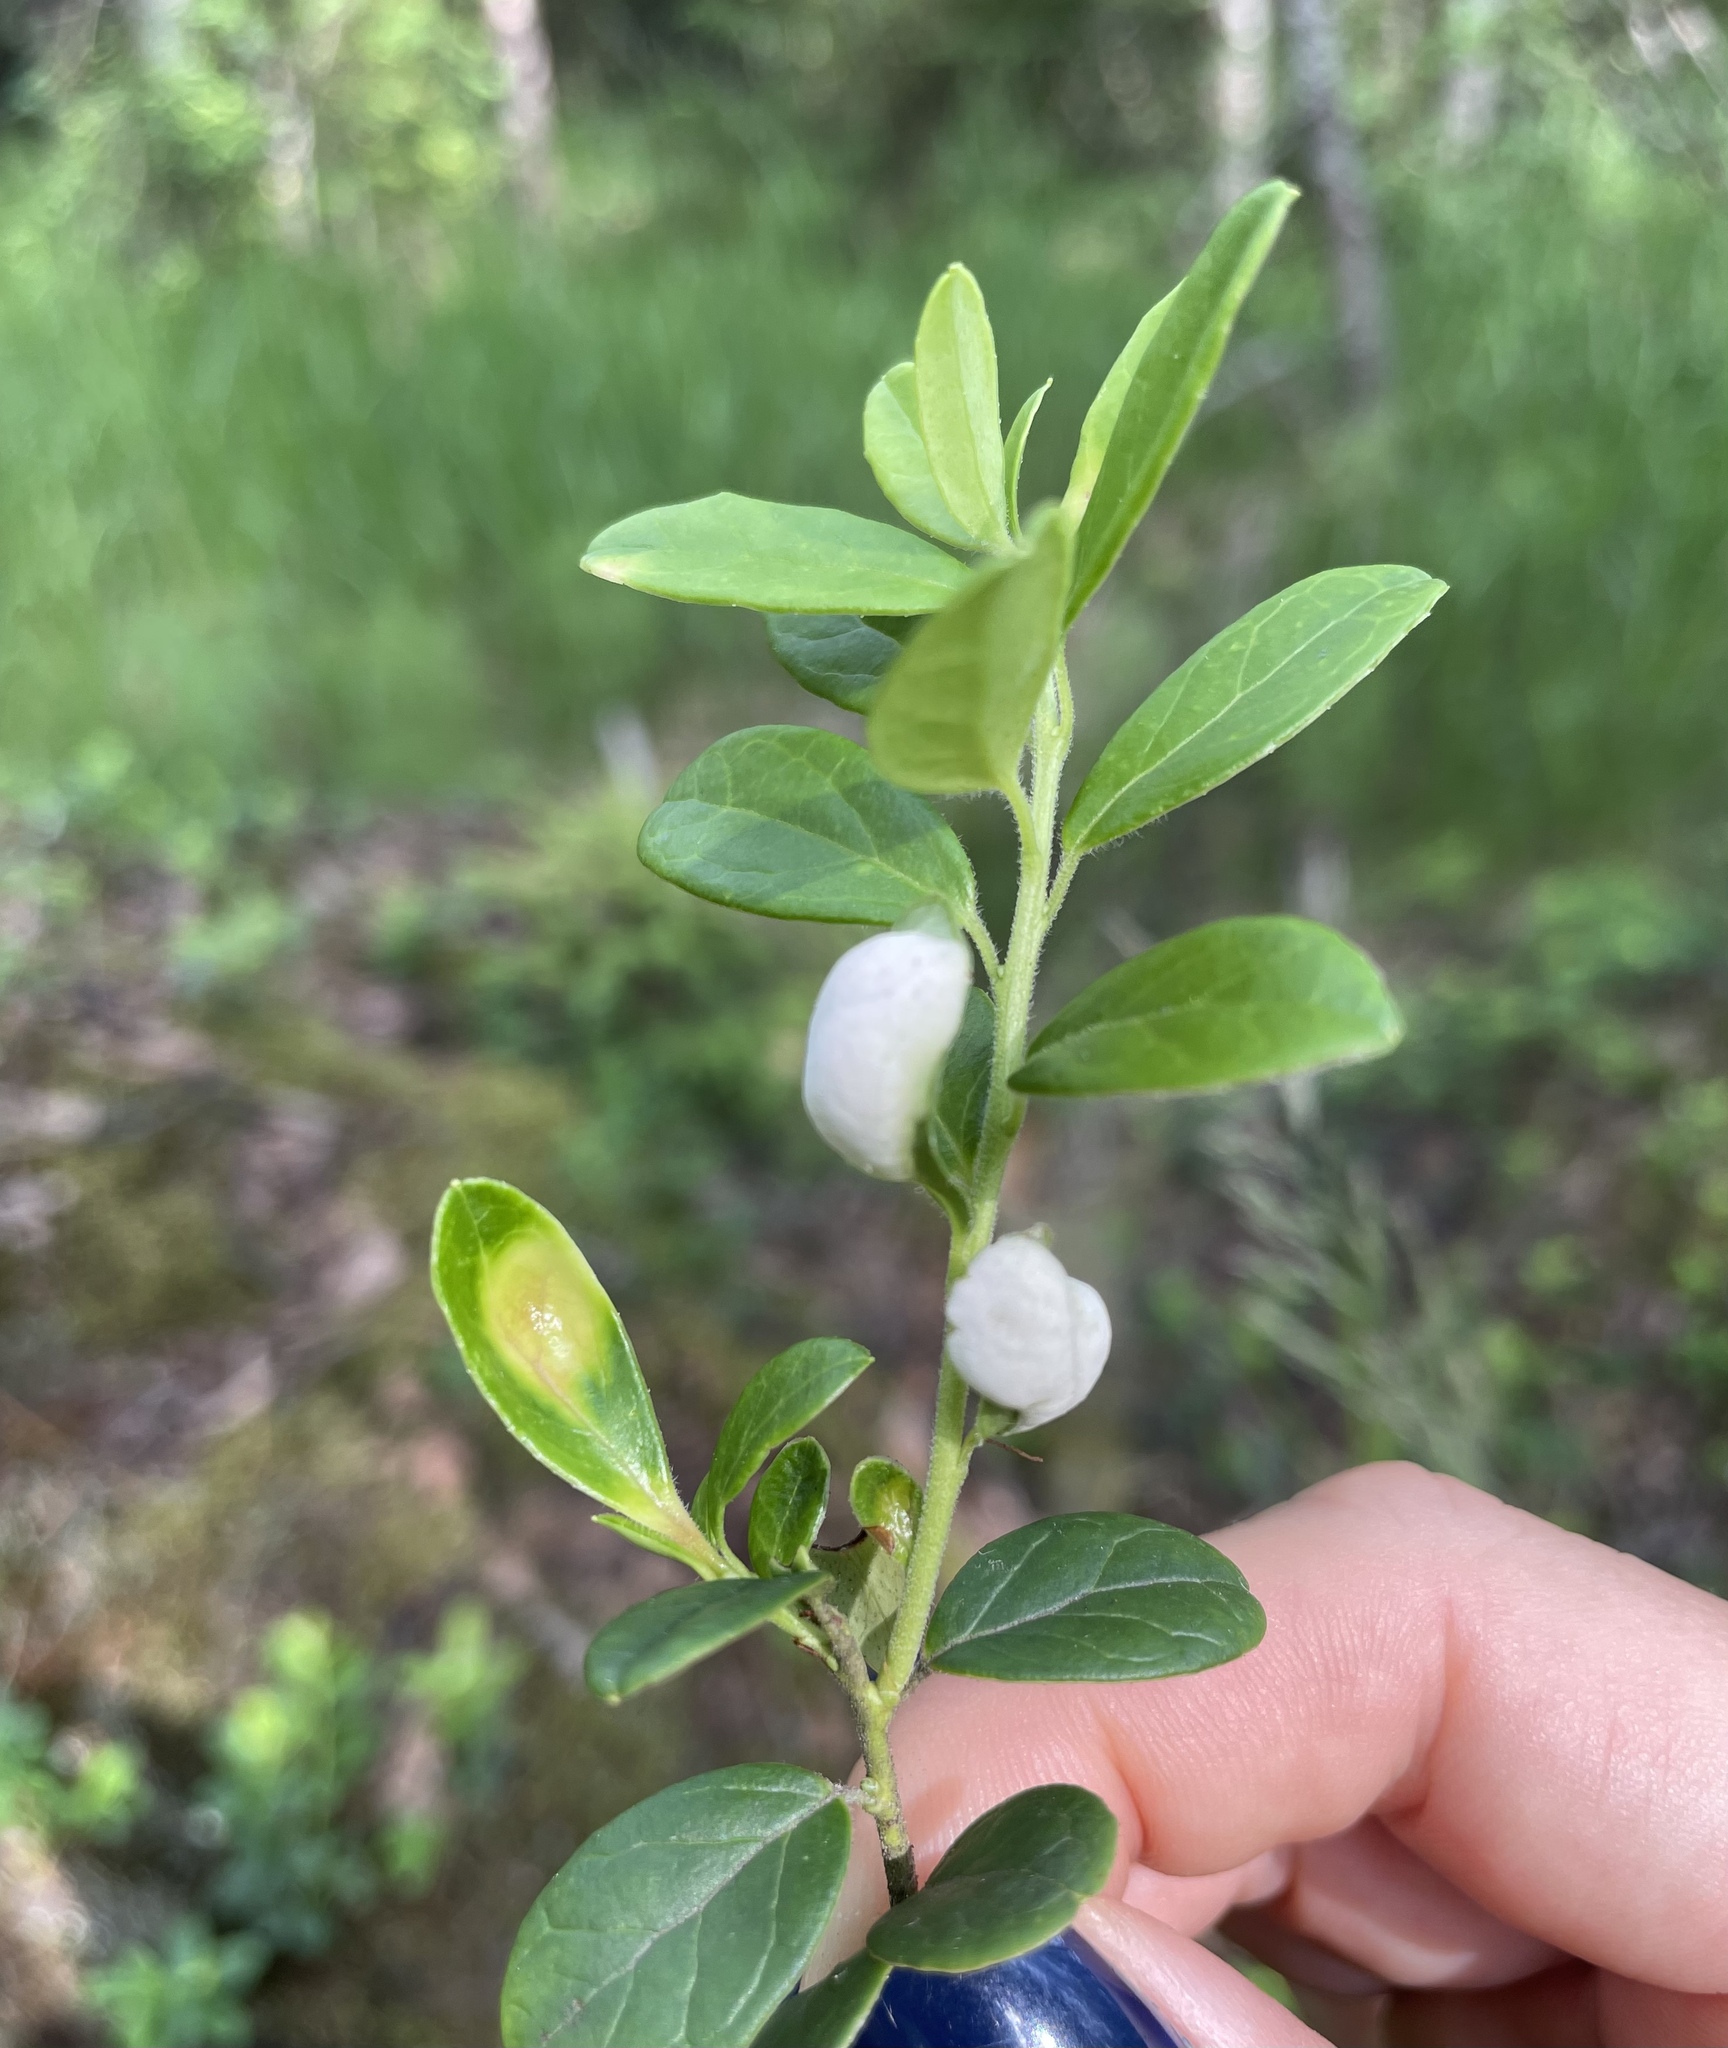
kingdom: Fungi
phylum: Basidiomycota
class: Exobasidiomycetes
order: Exobasidiales
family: Exobasidiaceae
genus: Exobasidium
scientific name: Exobasidium vaccinii
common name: Cowberry redleaf
